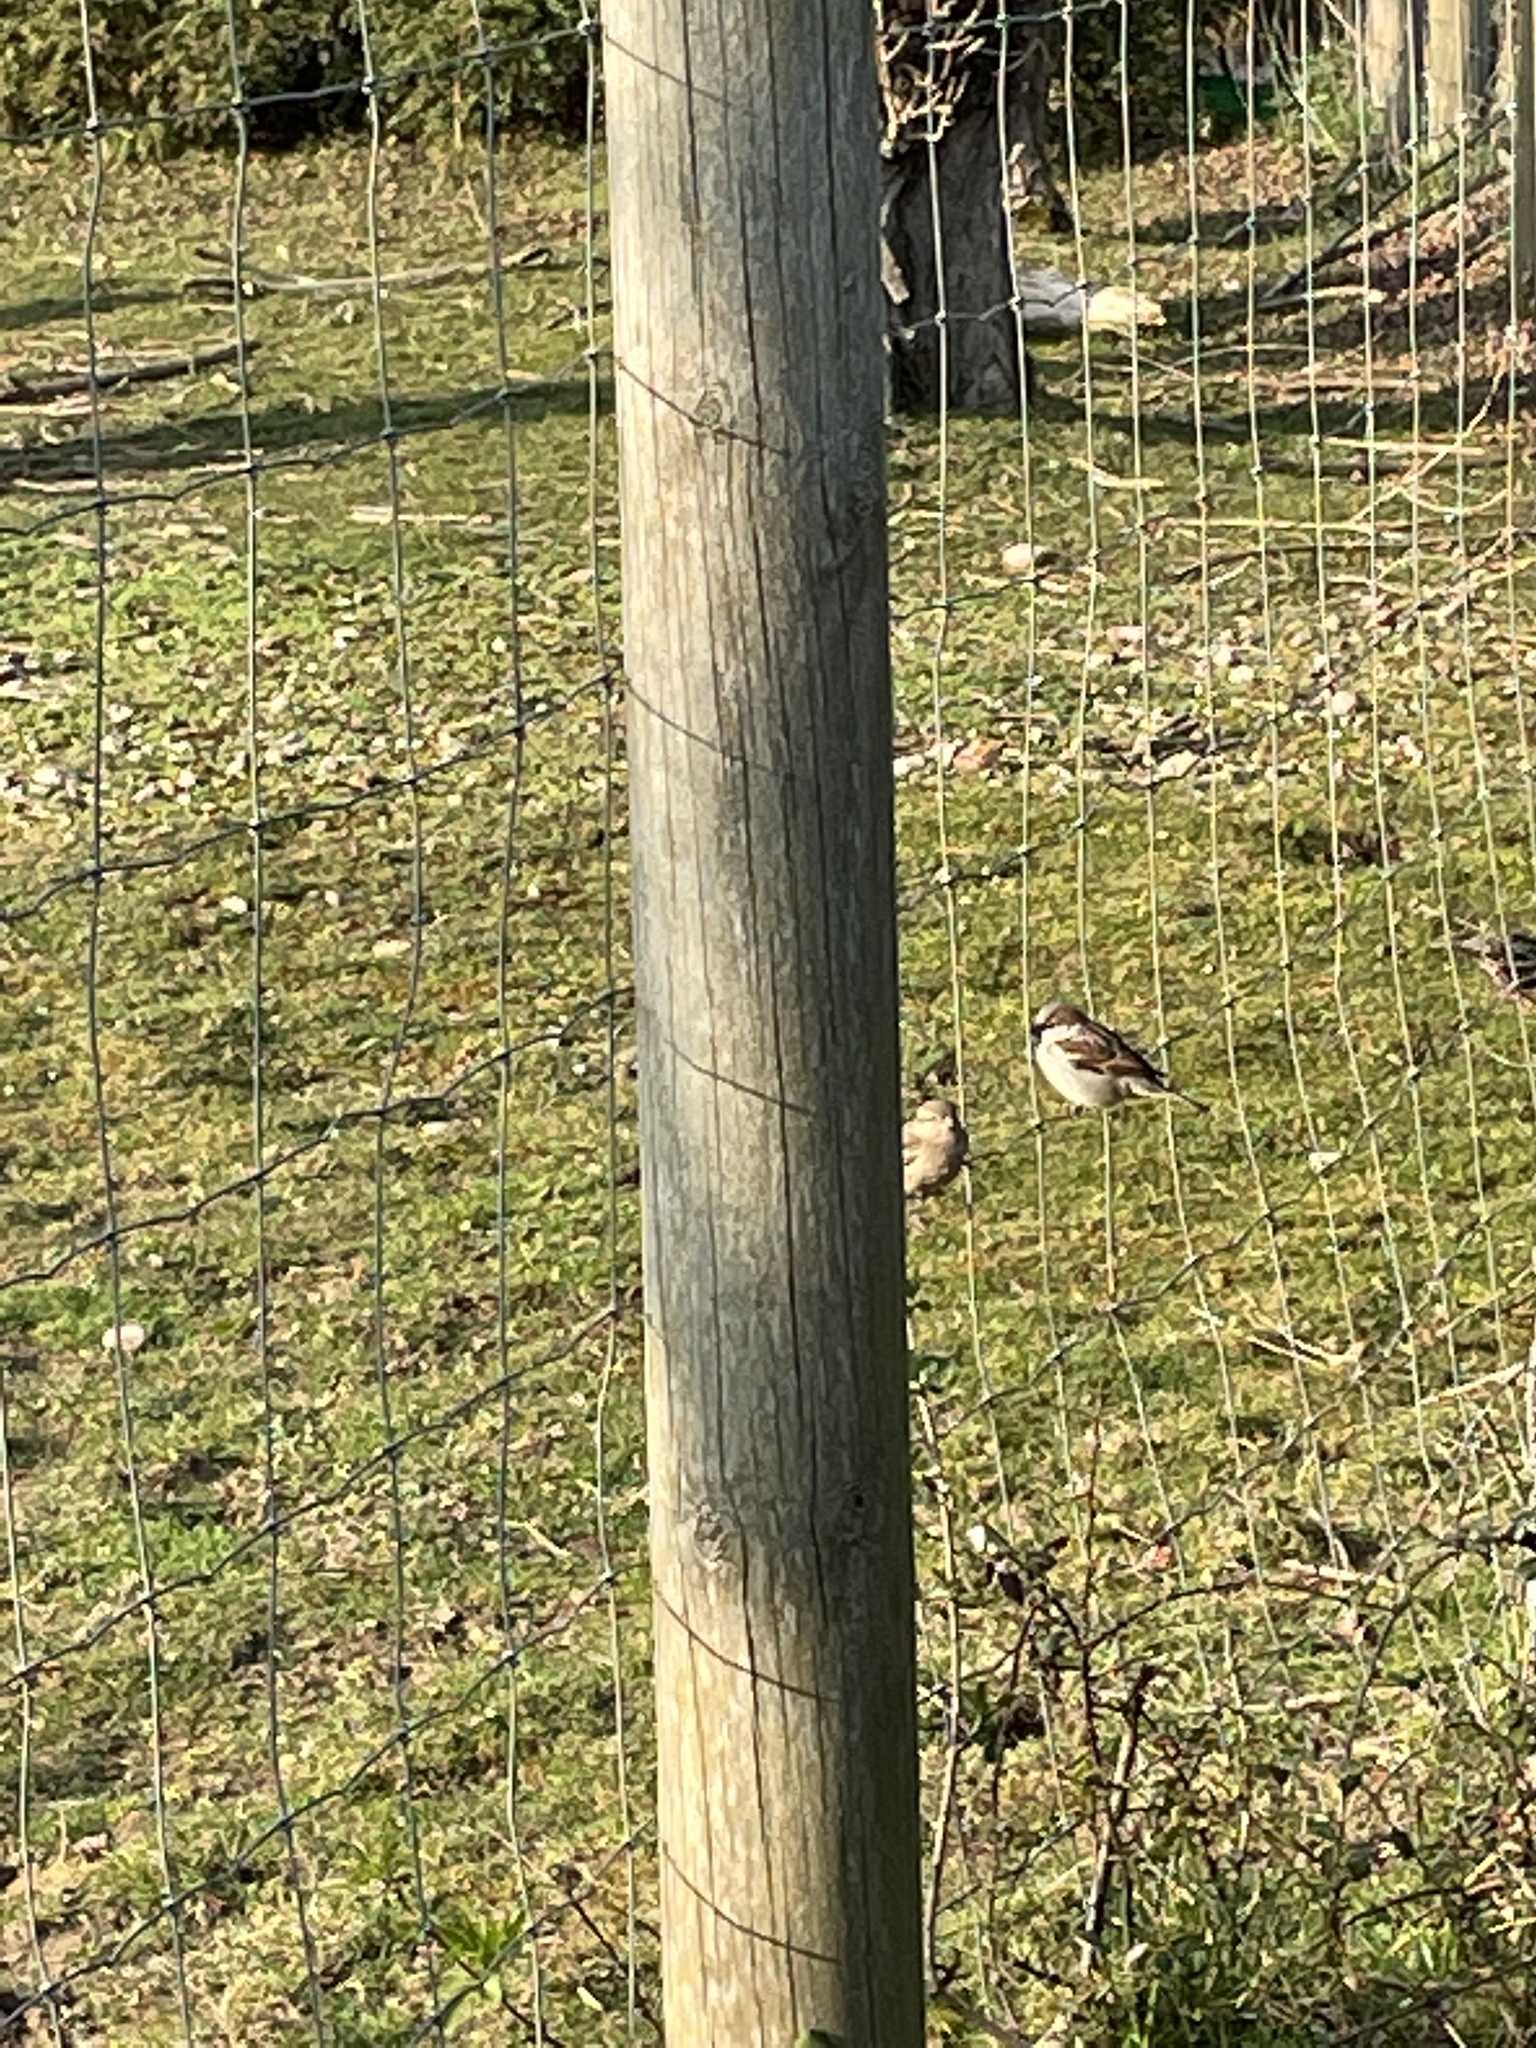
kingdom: Animalia
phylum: Chordata
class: Aves
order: Passeriformes
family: Passeridae
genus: Passer
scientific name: Passer domesticus
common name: House sparrow
